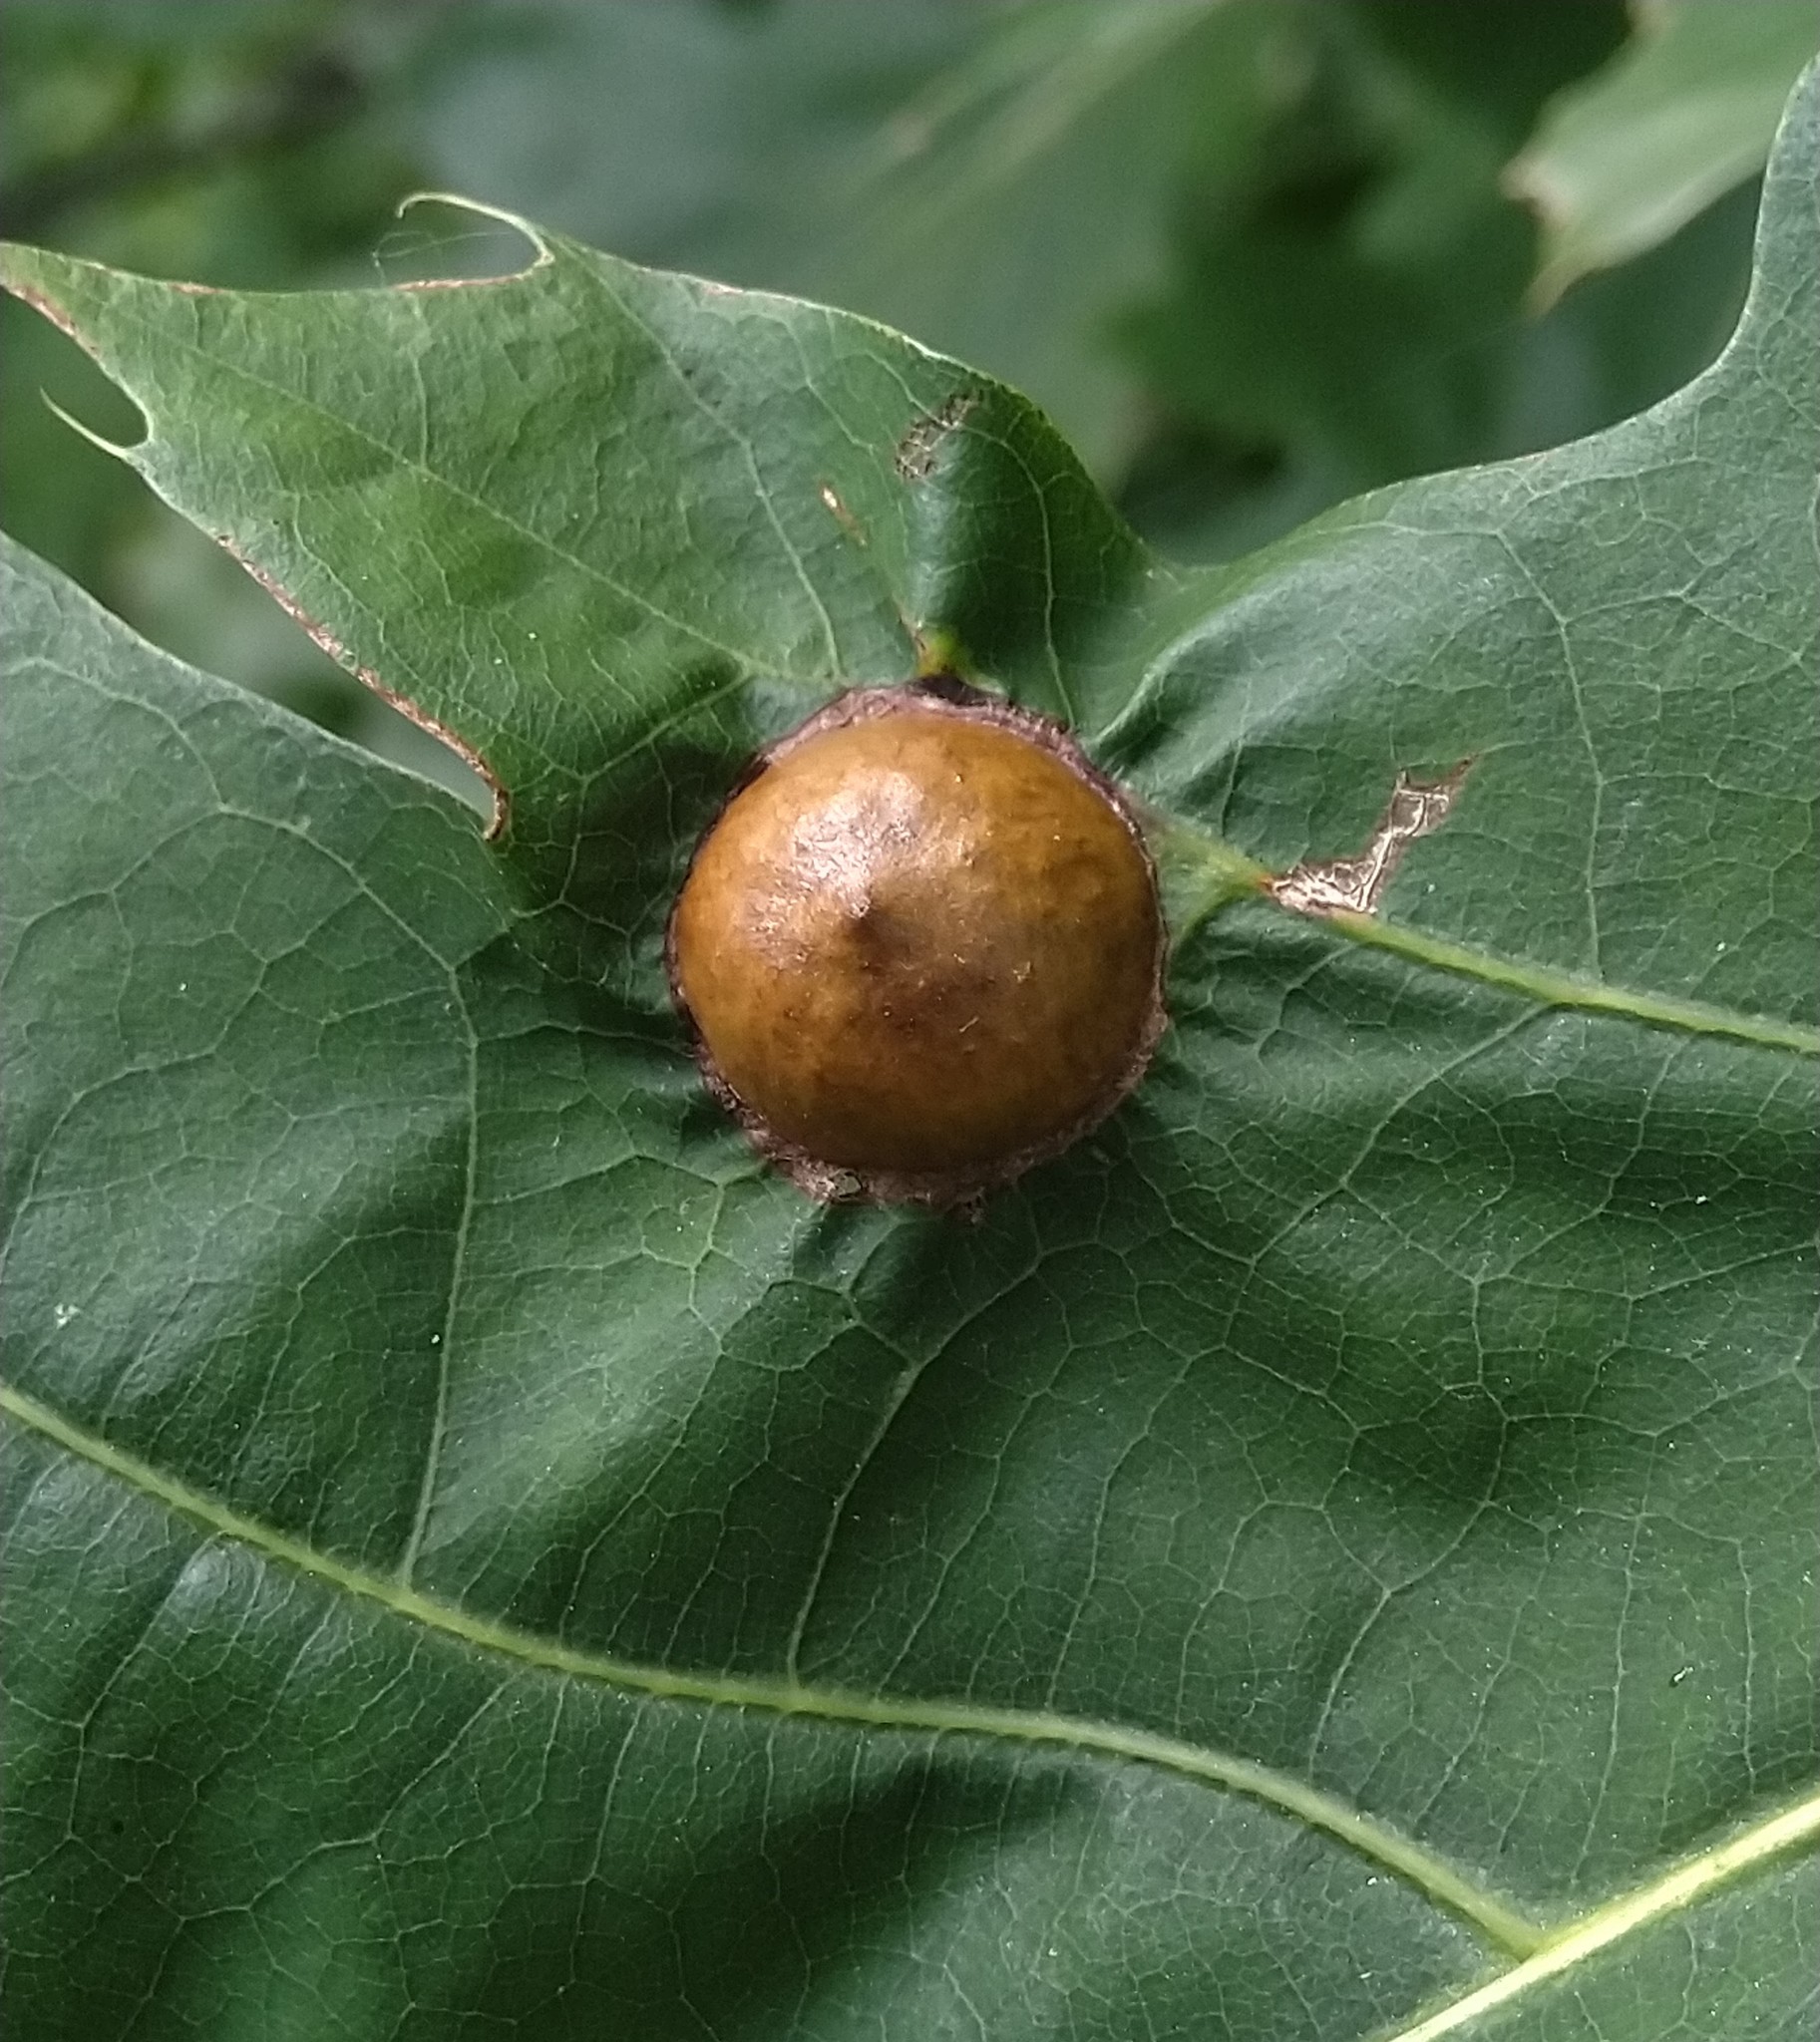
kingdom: Animalia
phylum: Arthropoda
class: Insecta
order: Hymenoptera
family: Cynipidae
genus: Amphibolips
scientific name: Amphibolips
